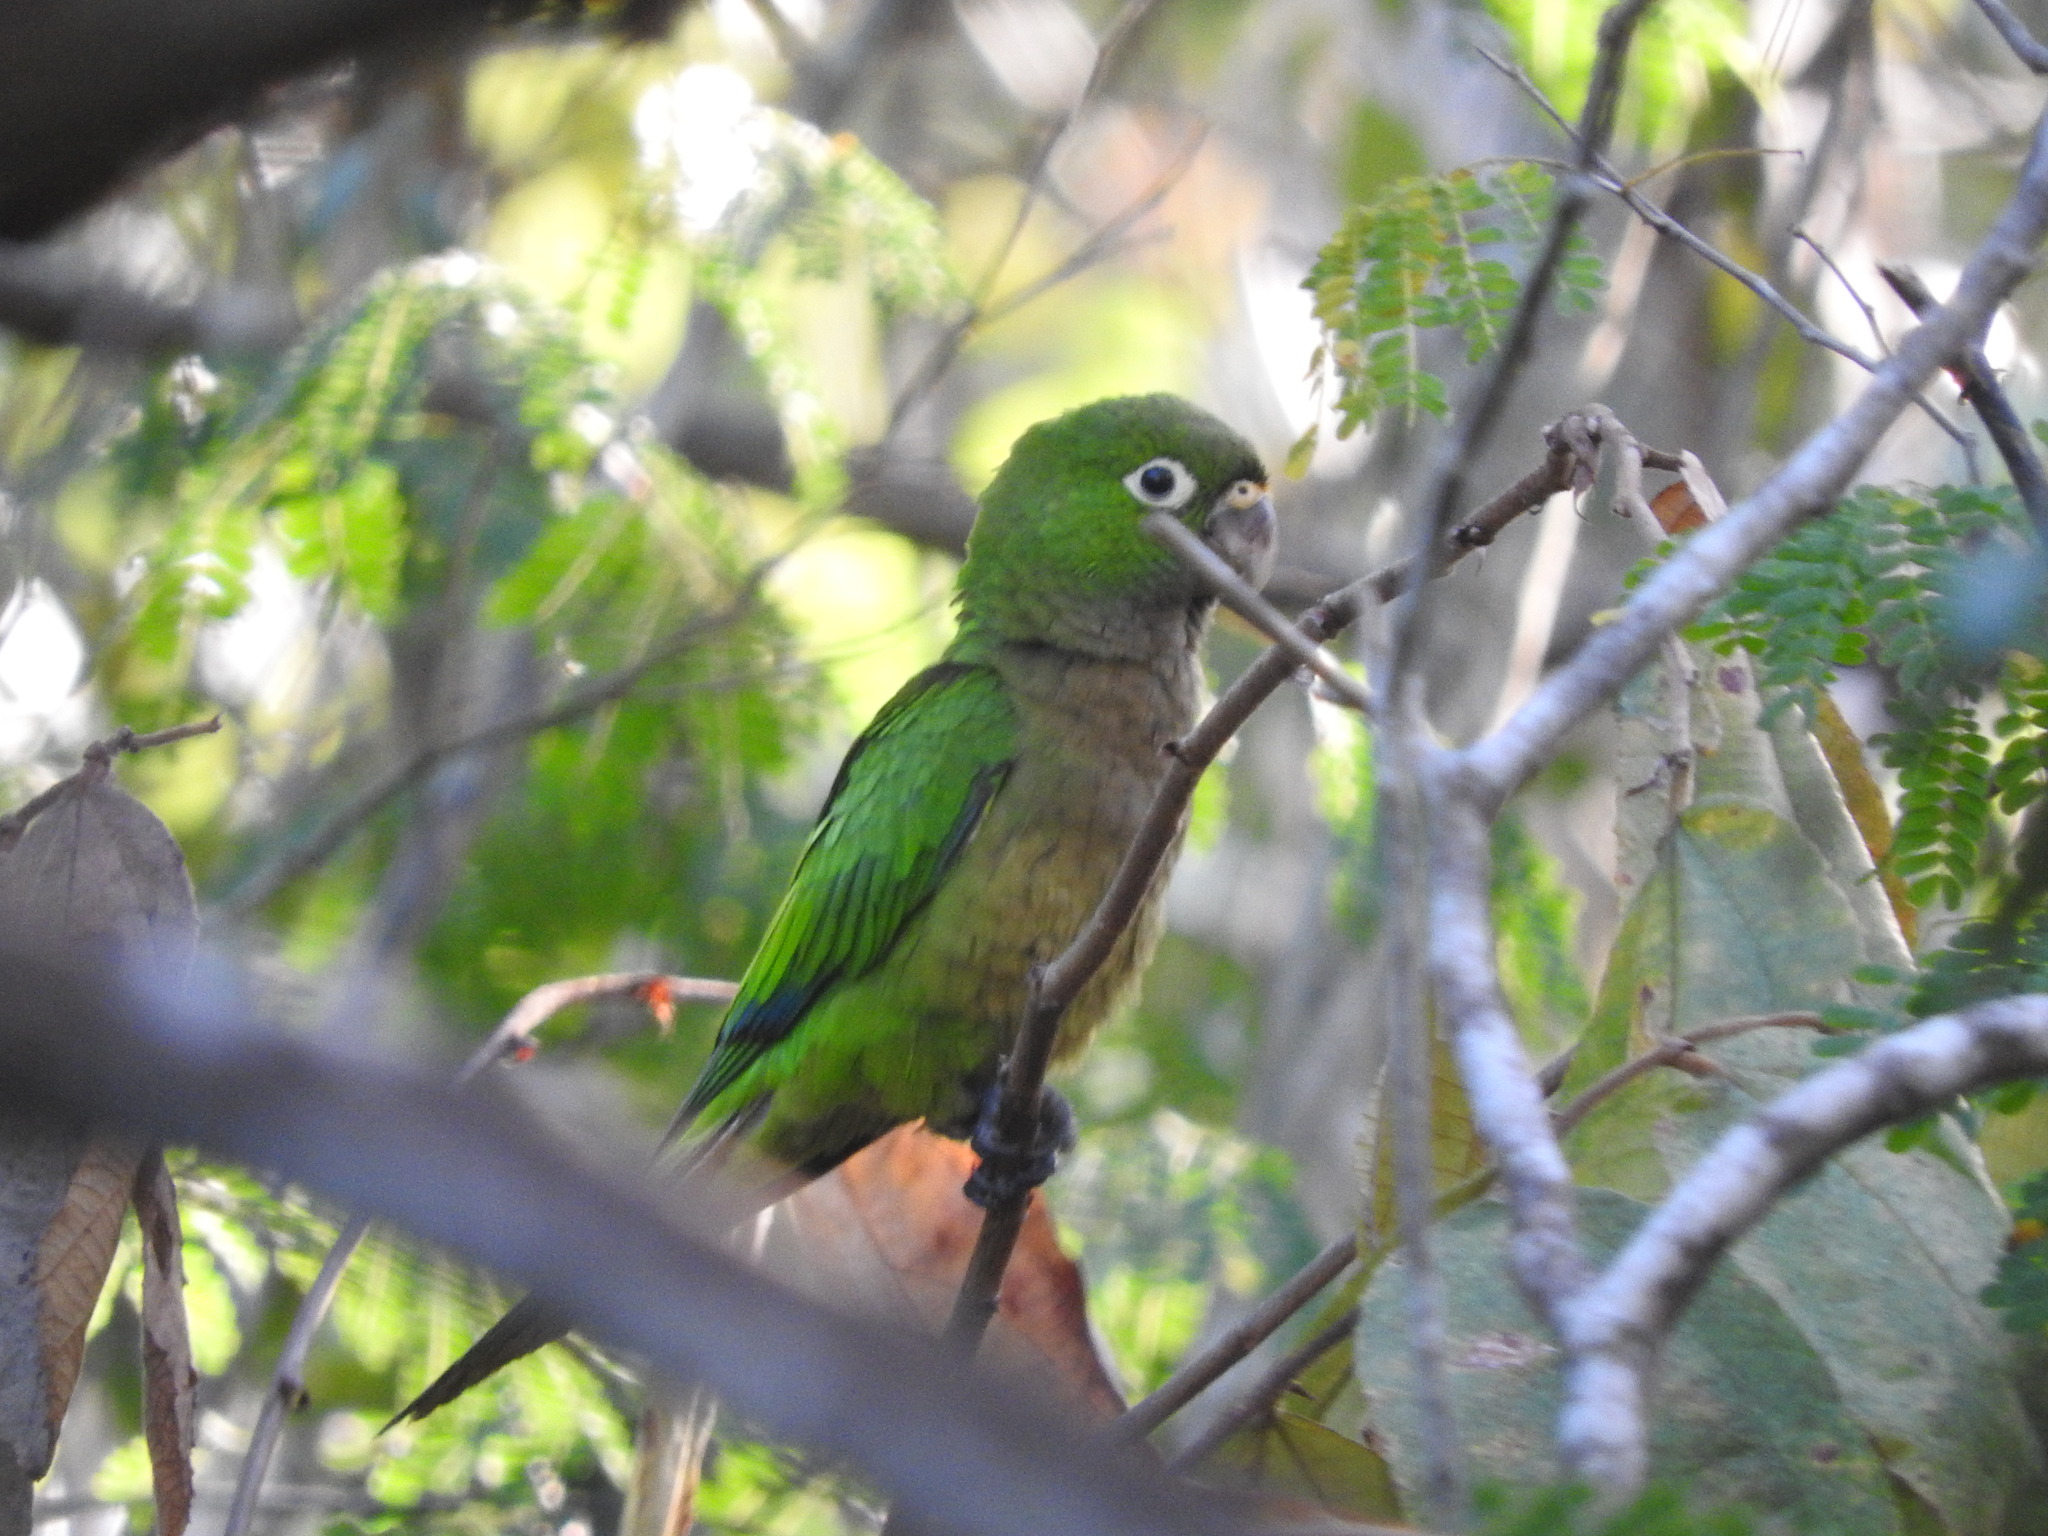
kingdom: Animalia
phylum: Chordata
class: Aves
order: Psittaciformes
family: Psittacidae
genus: Aratinga
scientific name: Aratinga nana
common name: Olive-throated parakeet
